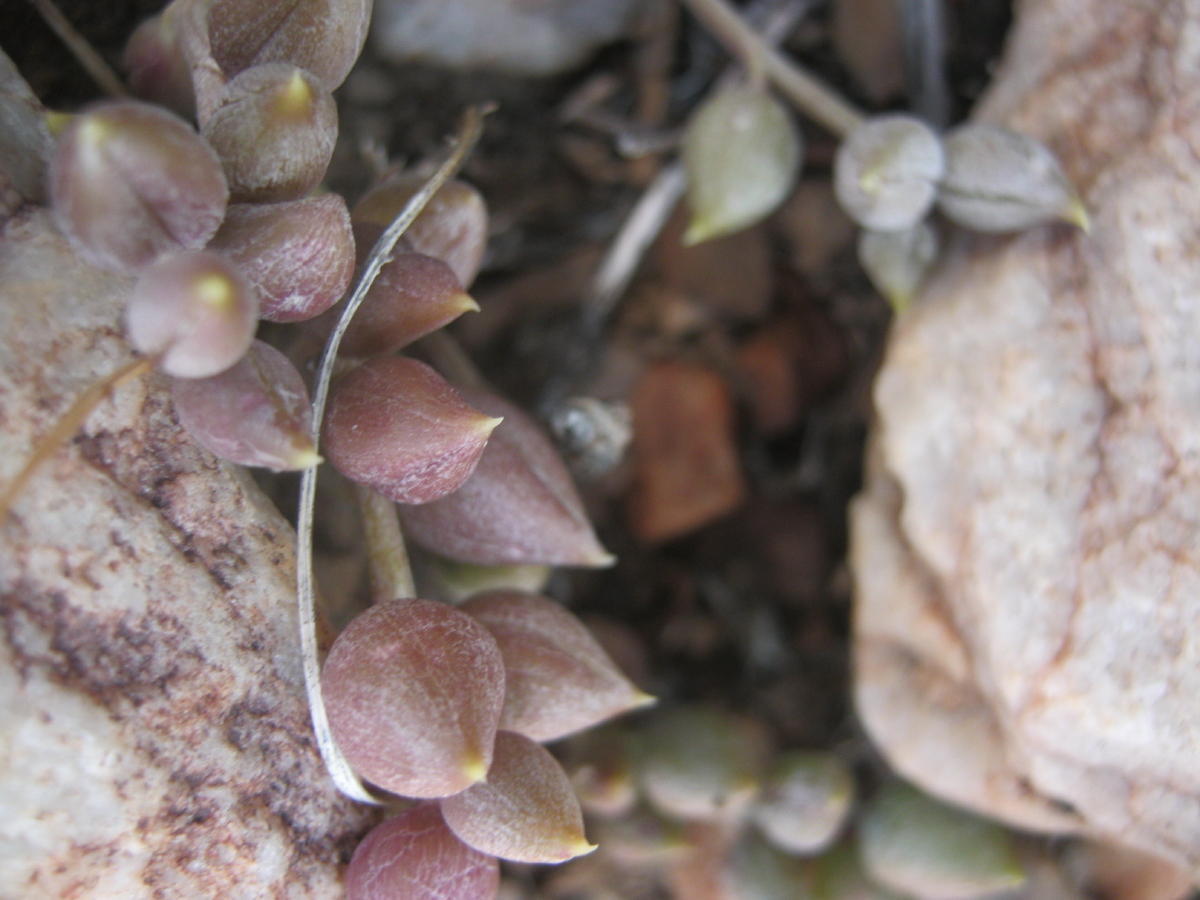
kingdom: Plantae
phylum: Tracheophyta
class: Magnoliopsida
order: Asterales
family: Asteraceae
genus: Curio
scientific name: Curio radicans
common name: Creeping-berry
